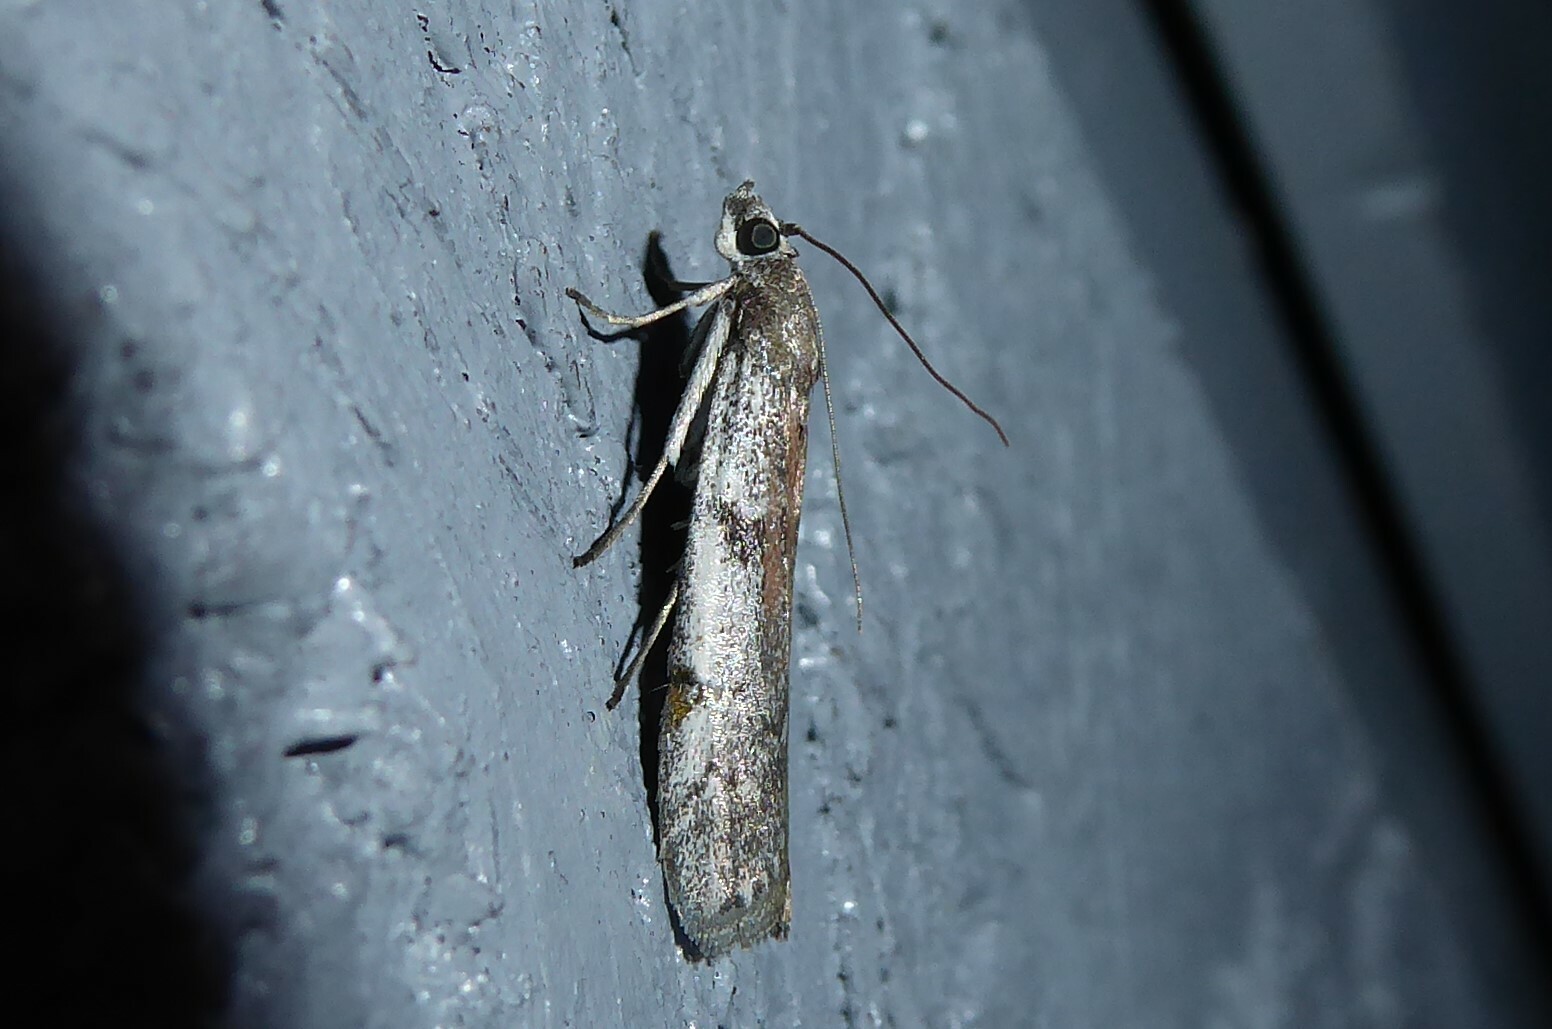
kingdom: Animalia
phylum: Arthropoda
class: Insecta
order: Lepidoptera
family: Pyralidae
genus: Patagoniodes
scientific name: Patagoniodes farinaria
